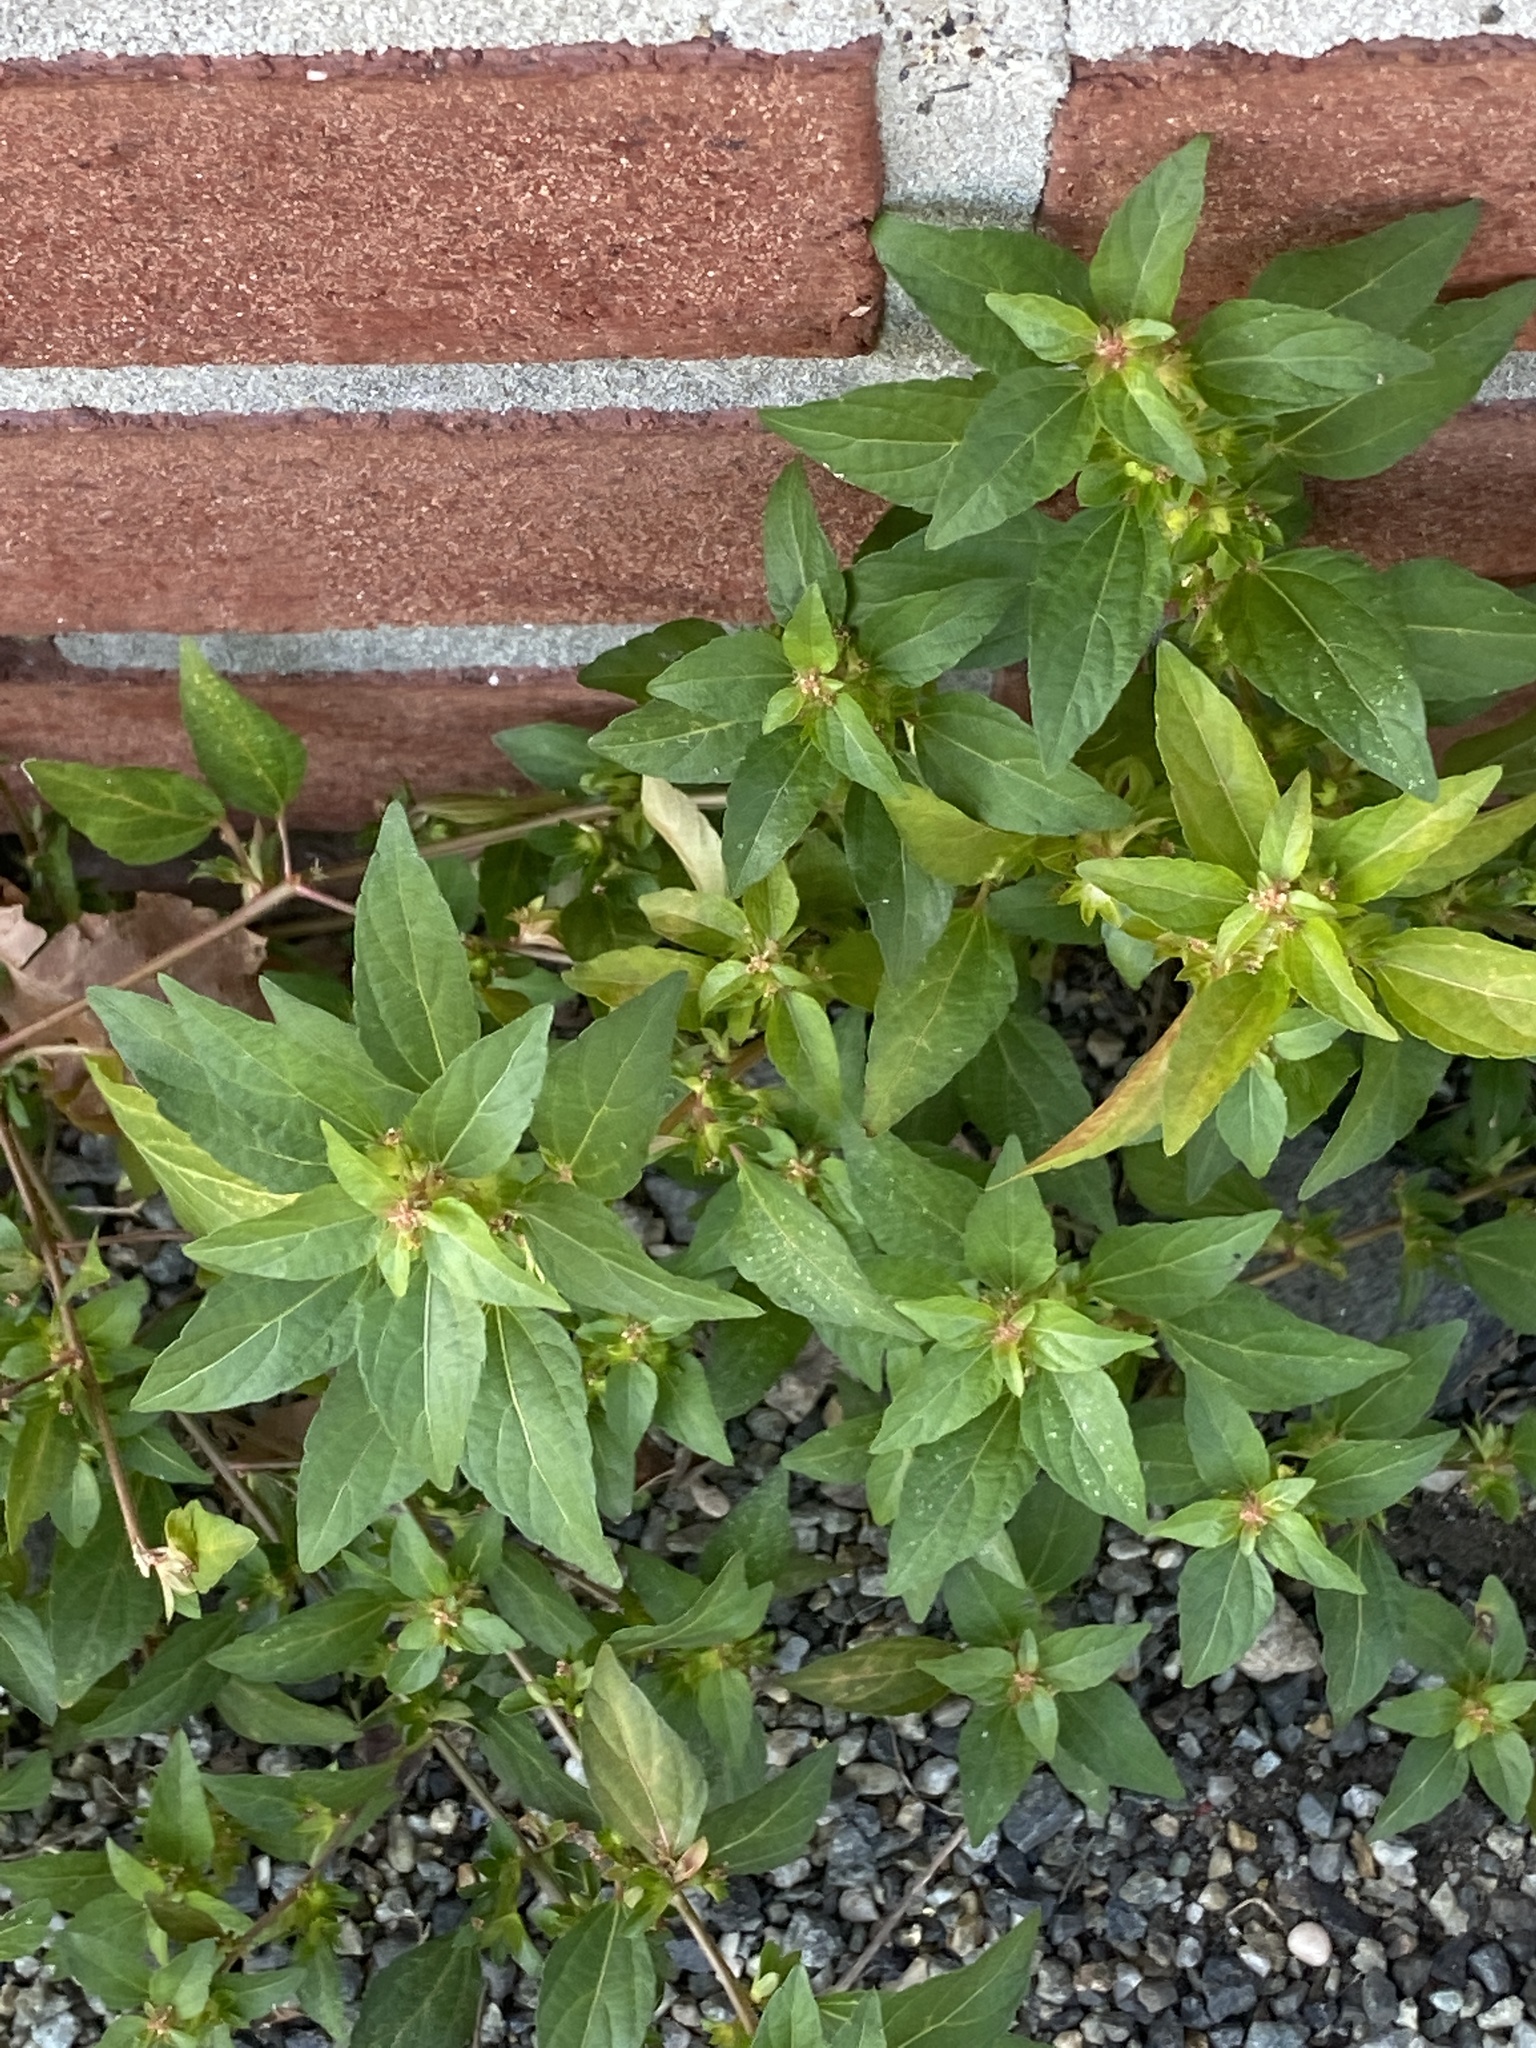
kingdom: Plantae
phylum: Tracheophyta
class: Magnoliopsida
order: Malpighiales
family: Euphorbiaceae
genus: Acalypha
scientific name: Acalypha rhomboidea
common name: Rhombic copperleaf
